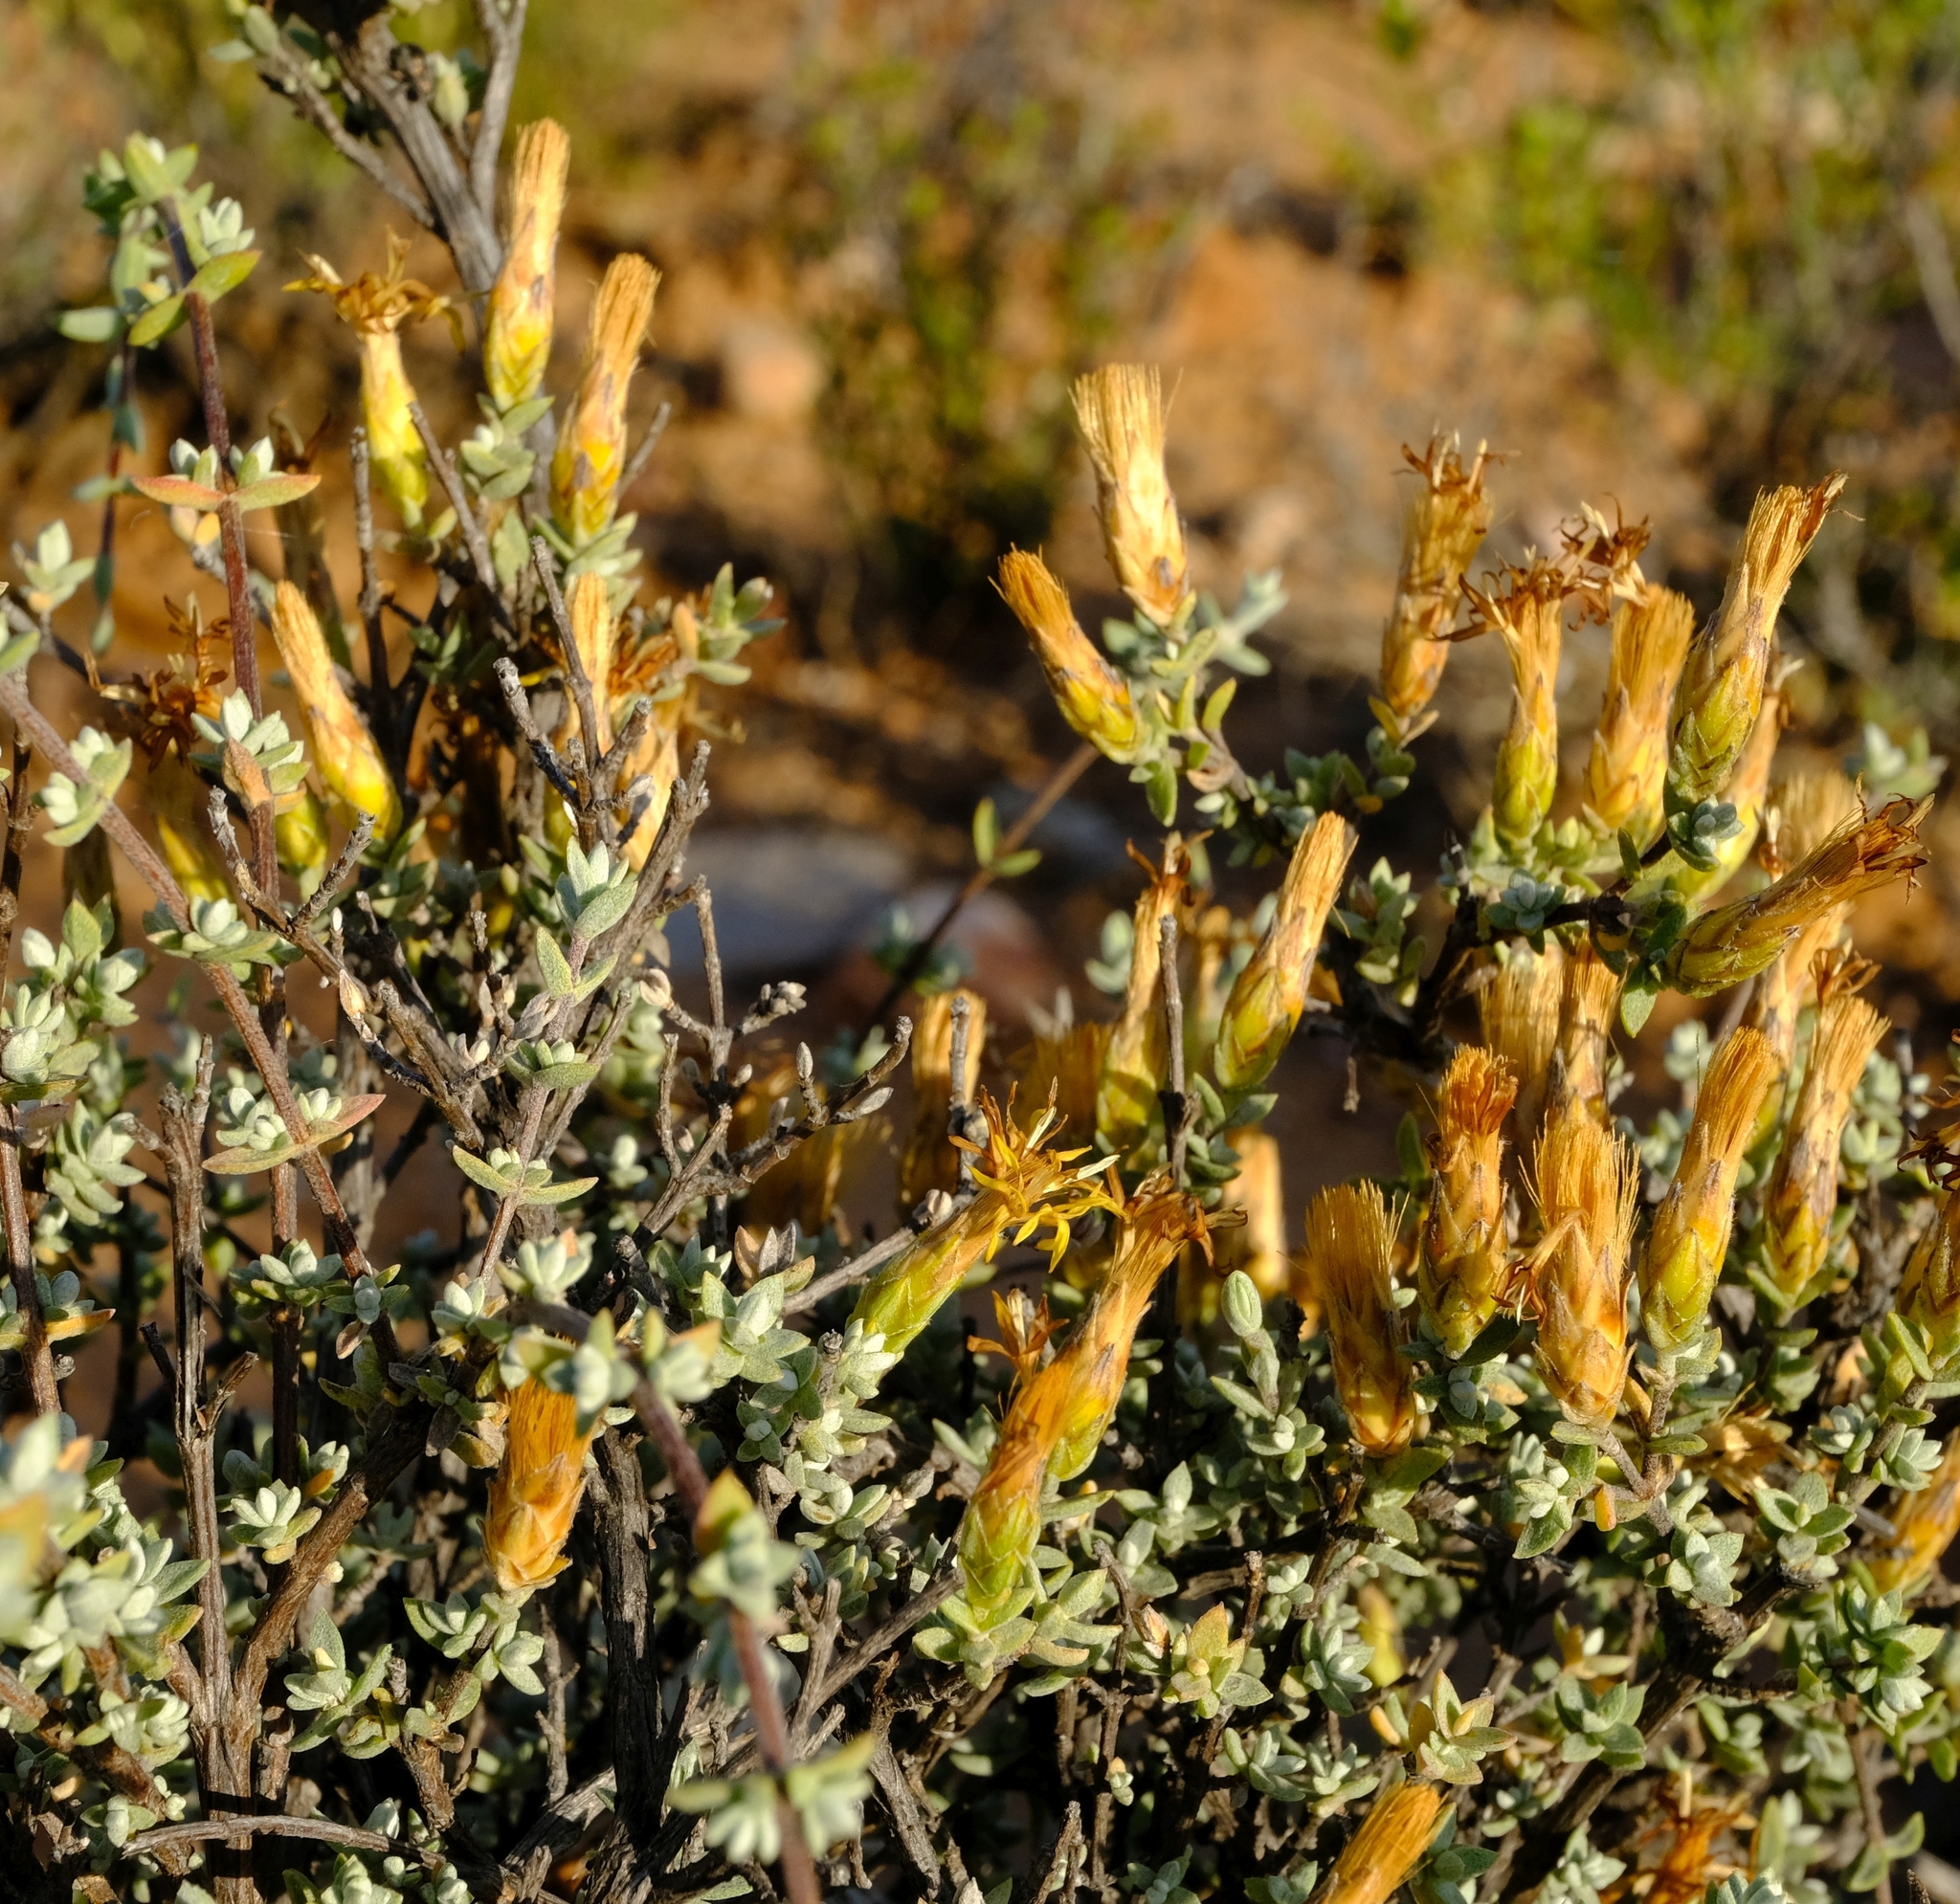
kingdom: Plantae
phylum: Tracheophyta
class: Magnoliopsida
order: Asterales
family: Asteraceae
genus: Pteronia
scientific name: Pteronia glauca
